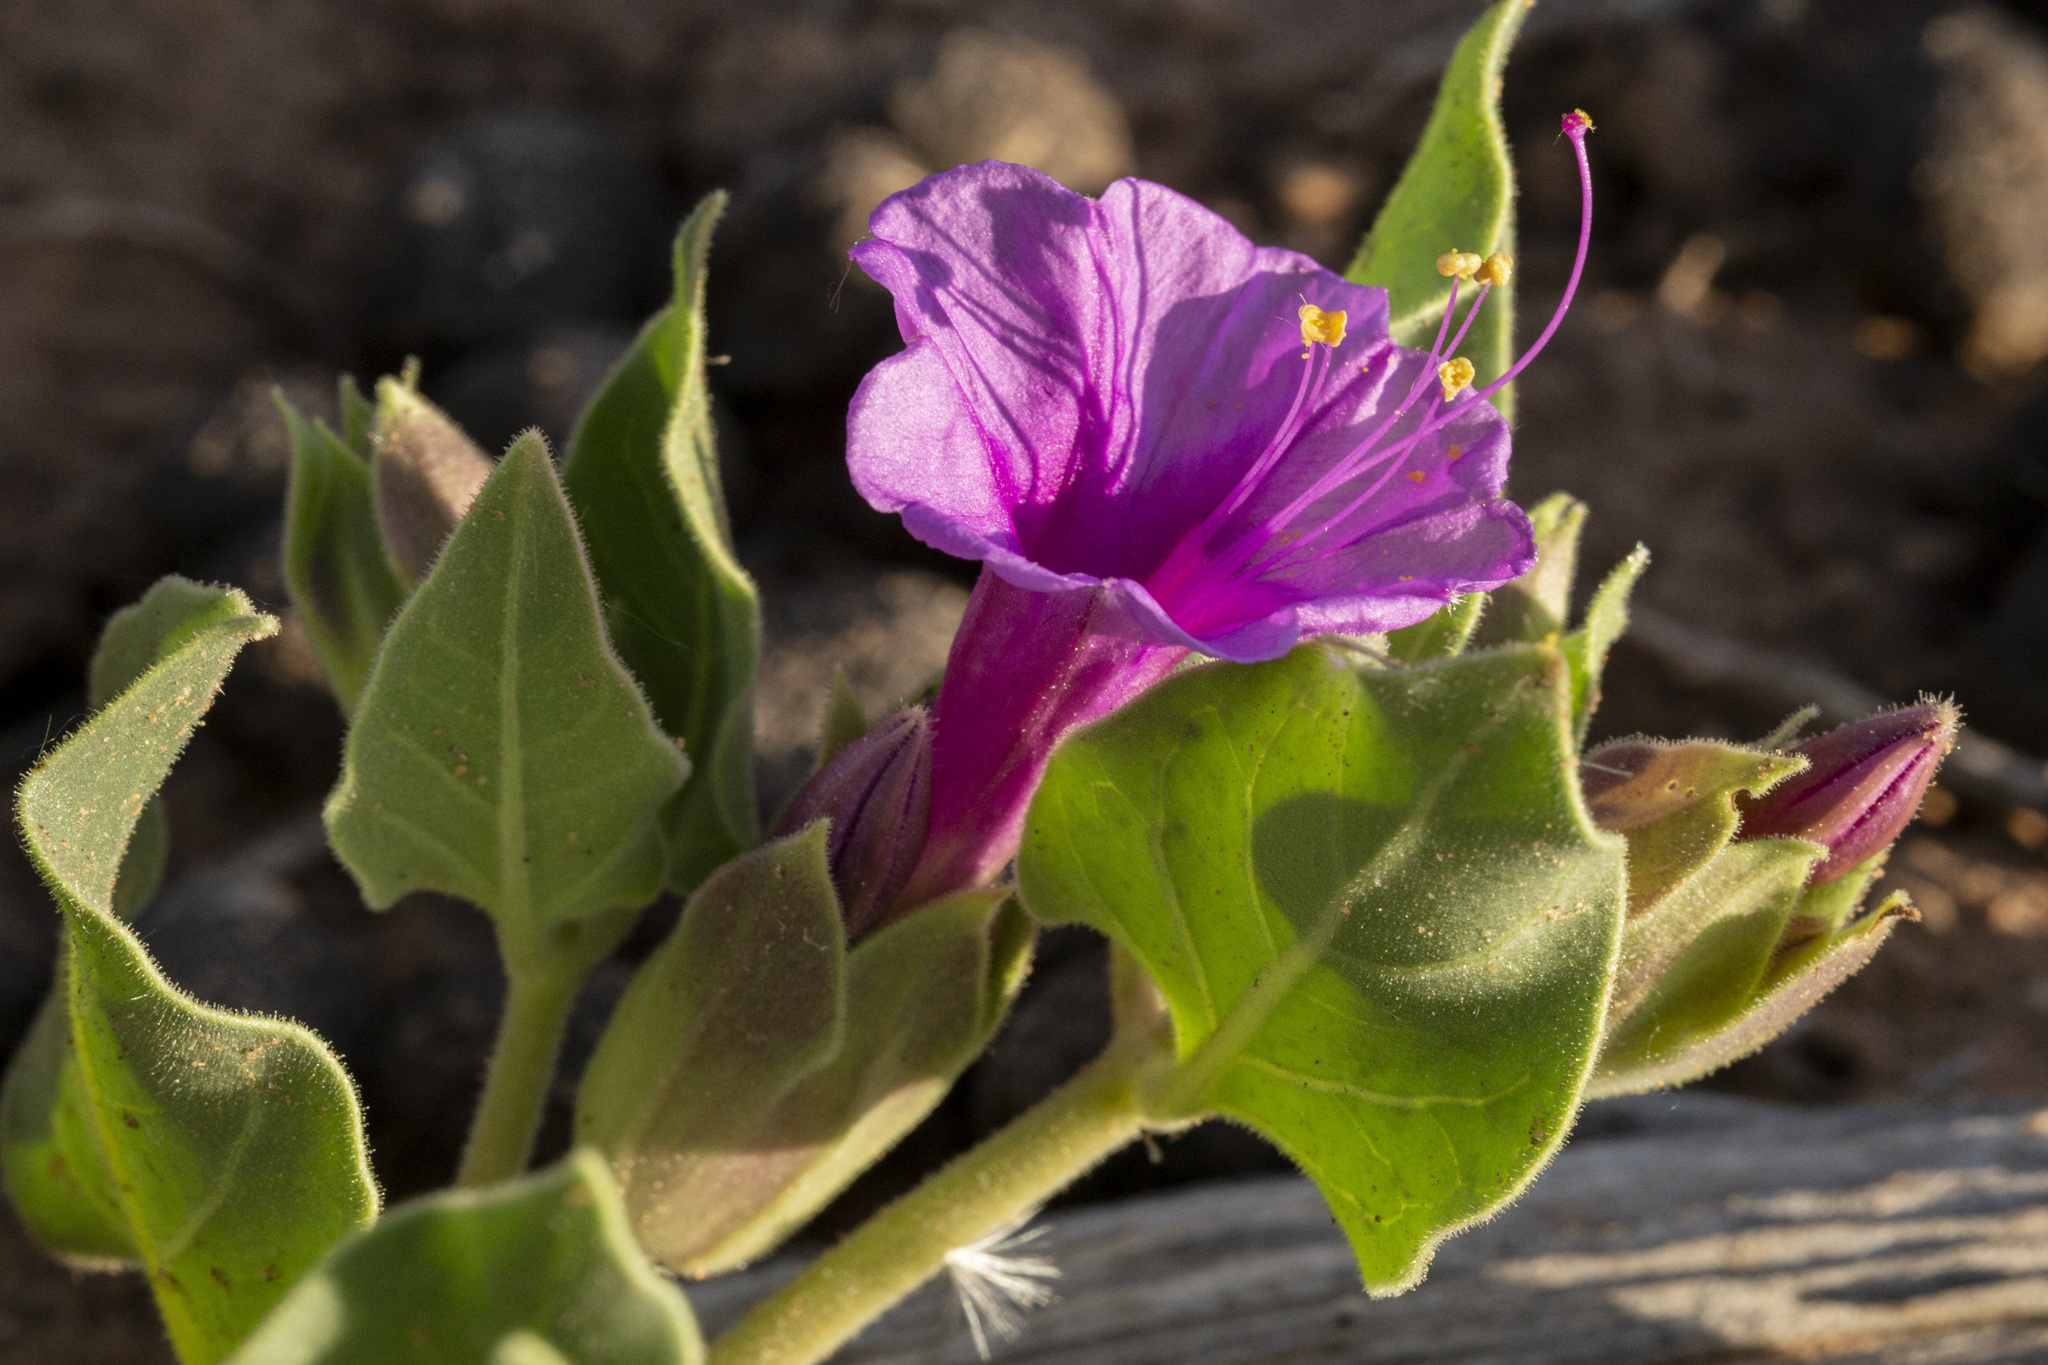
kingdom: Plantae
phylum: Tracheophyta
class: Magnoliopsida
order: Caryophyllales
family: Nyctaginaceae
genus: Mirabilis
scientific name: Mirabilis multiflora
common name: Froebel's four-o'clock
